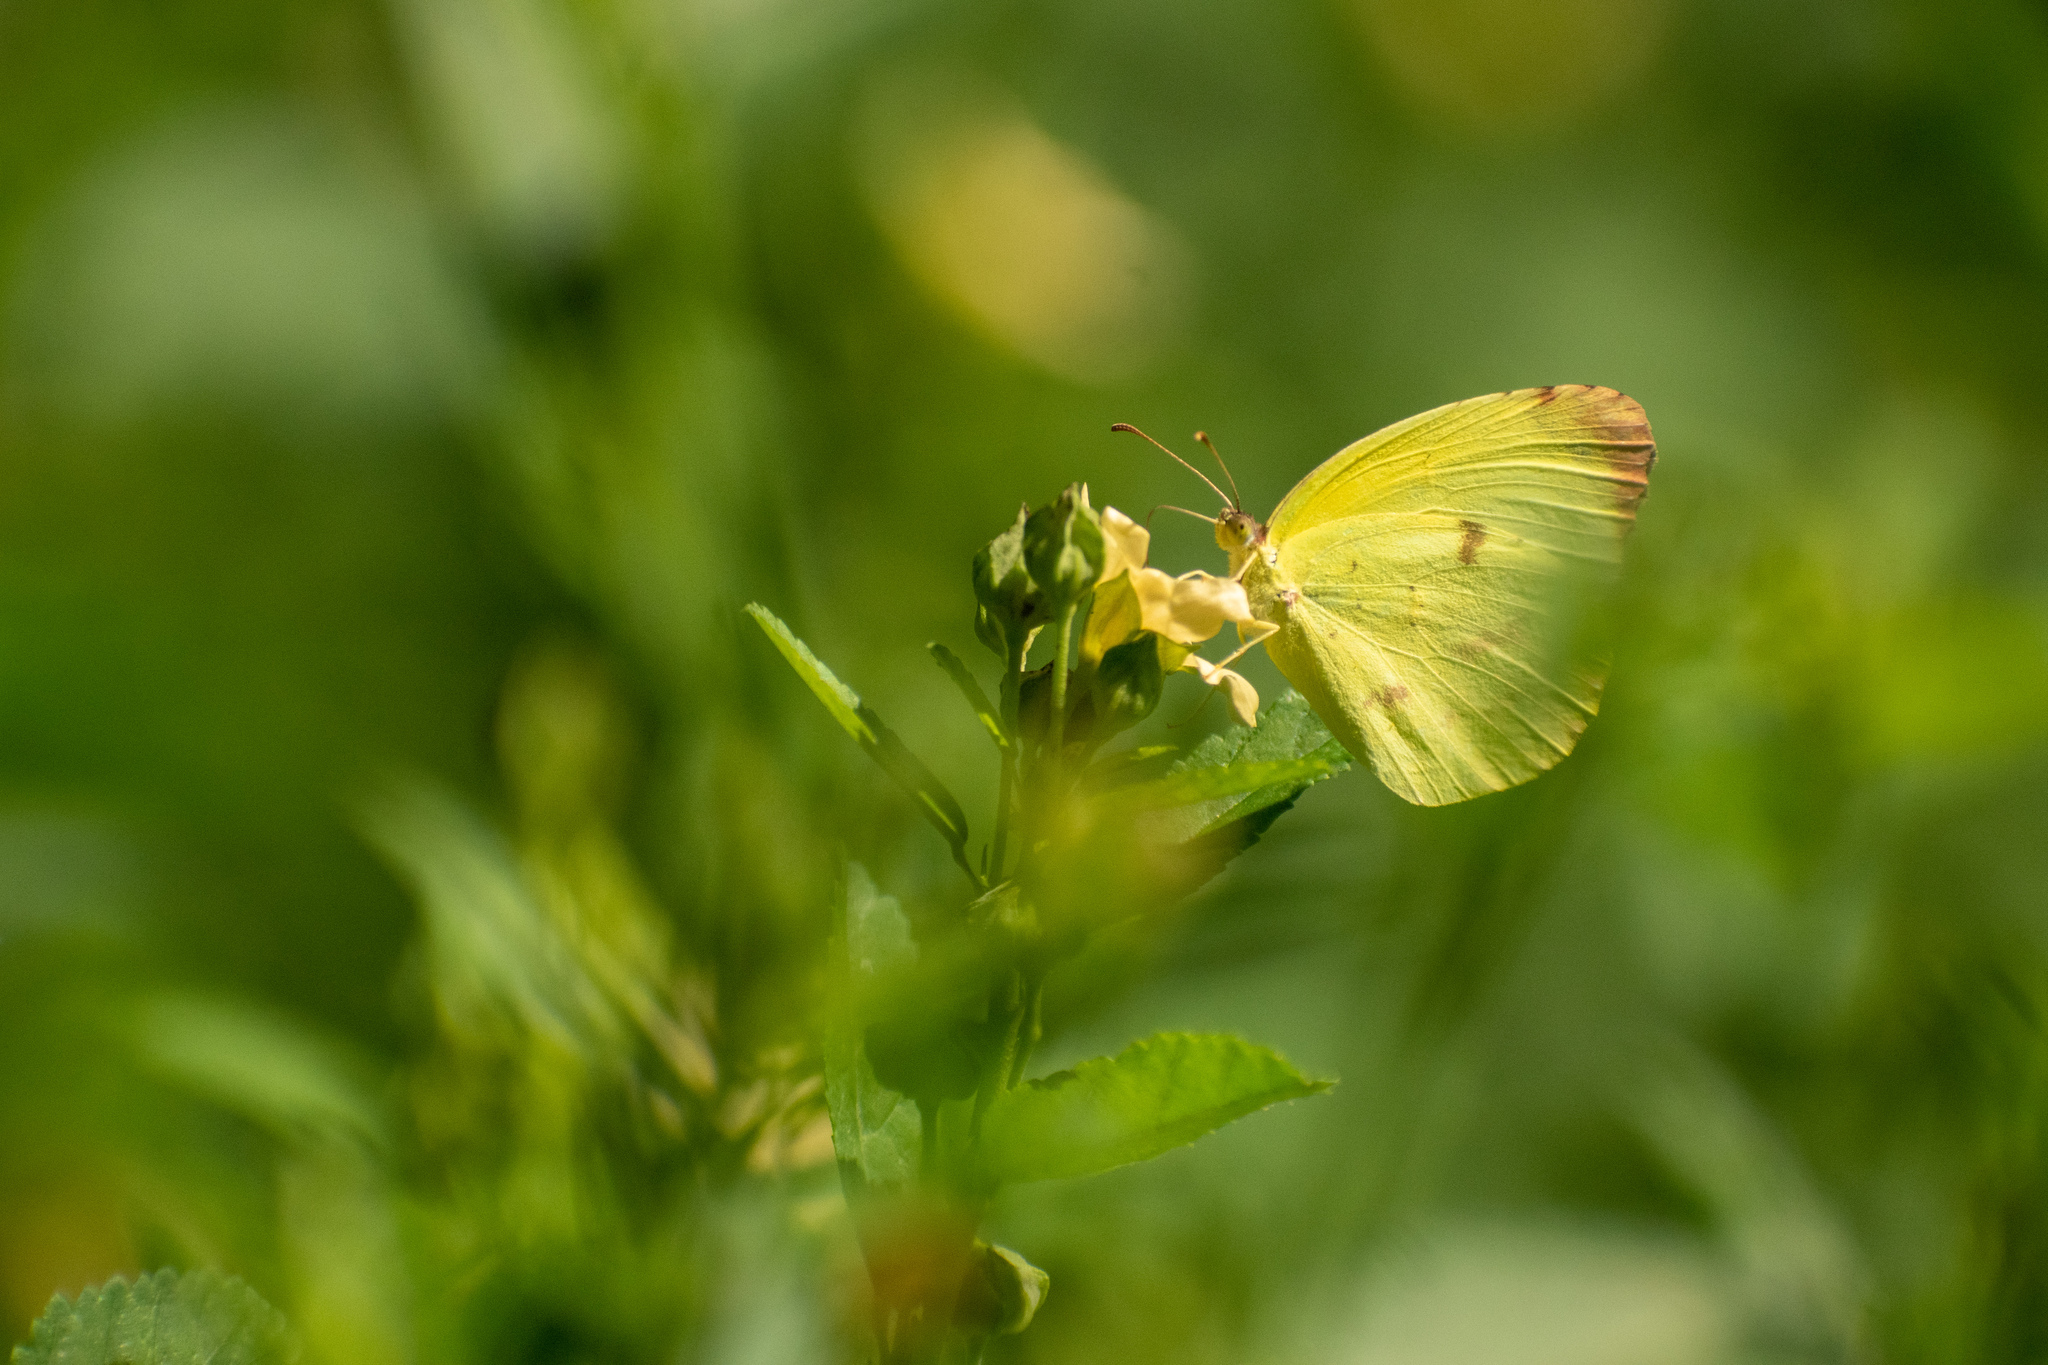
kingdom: Animalia
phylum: Arthropoda
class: Insecta
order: Lepidoptera
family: Pieridae
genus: Teriocolias
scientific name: Teriocolias
